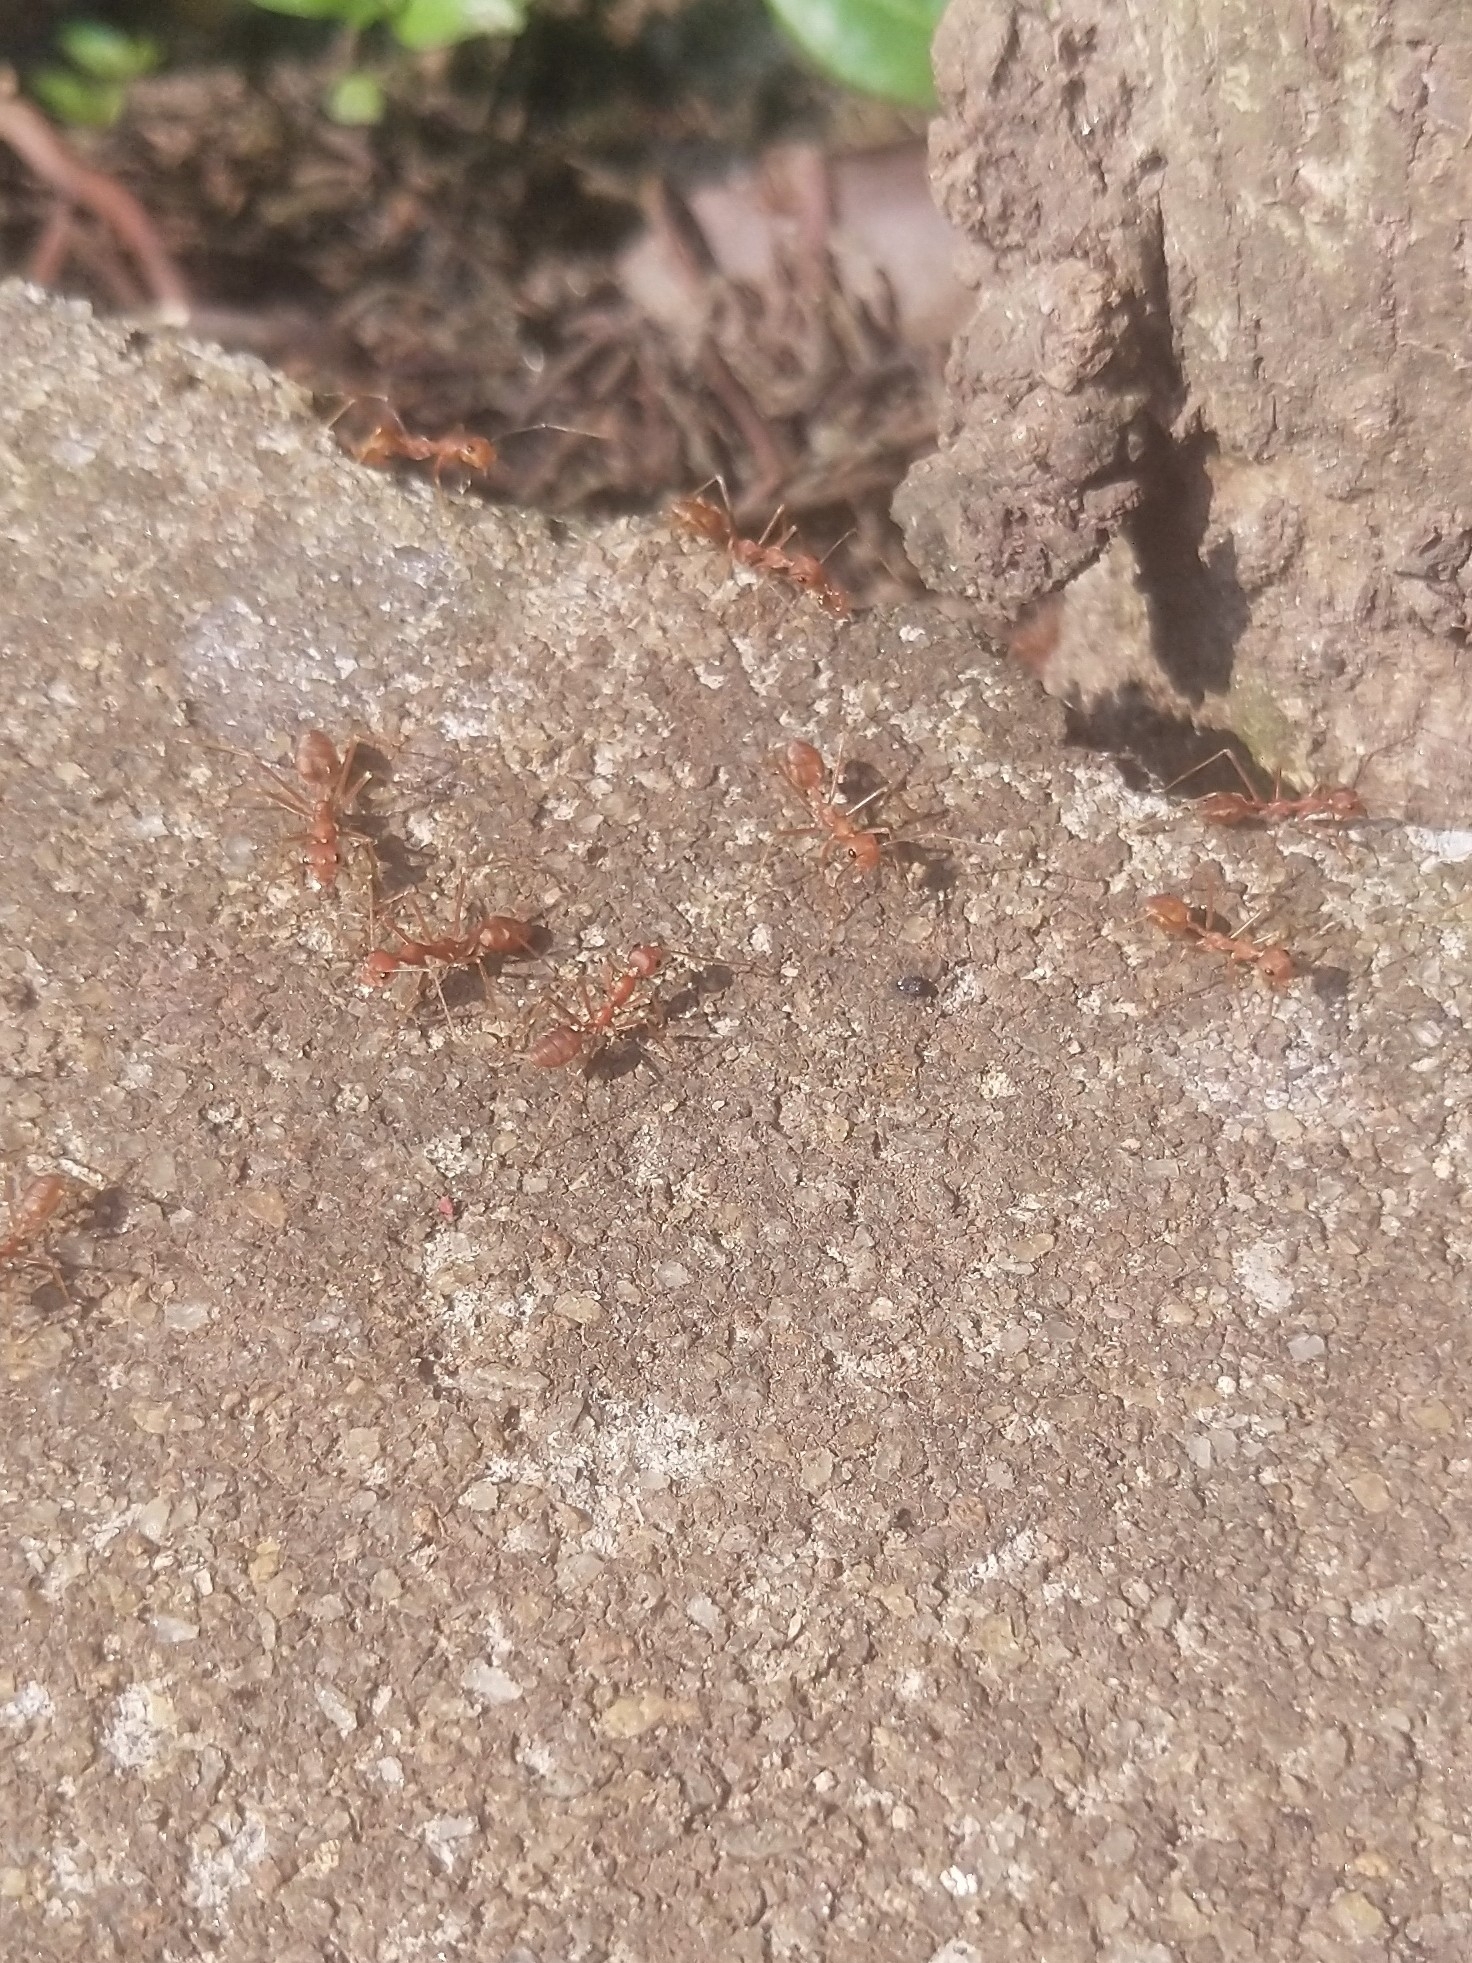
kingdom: Animalia
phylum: Arthropoda
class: Insecta
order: Hymenoptera
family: Formicidae
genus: Oecophylla
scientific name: Oecophylla smaragdina
